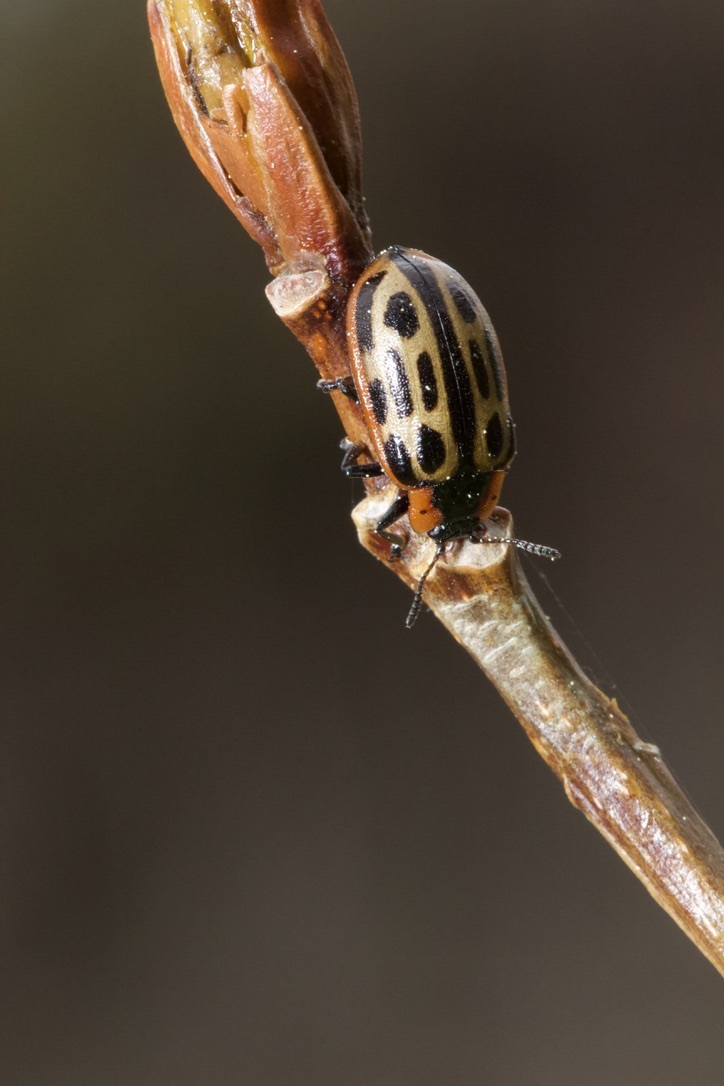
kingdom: Animalia
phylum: Arthropoda
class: Insecta
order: Coleoptera
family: Chrysomelidae
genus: Aethiopocassis
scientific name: Aethiopocassis scripta
